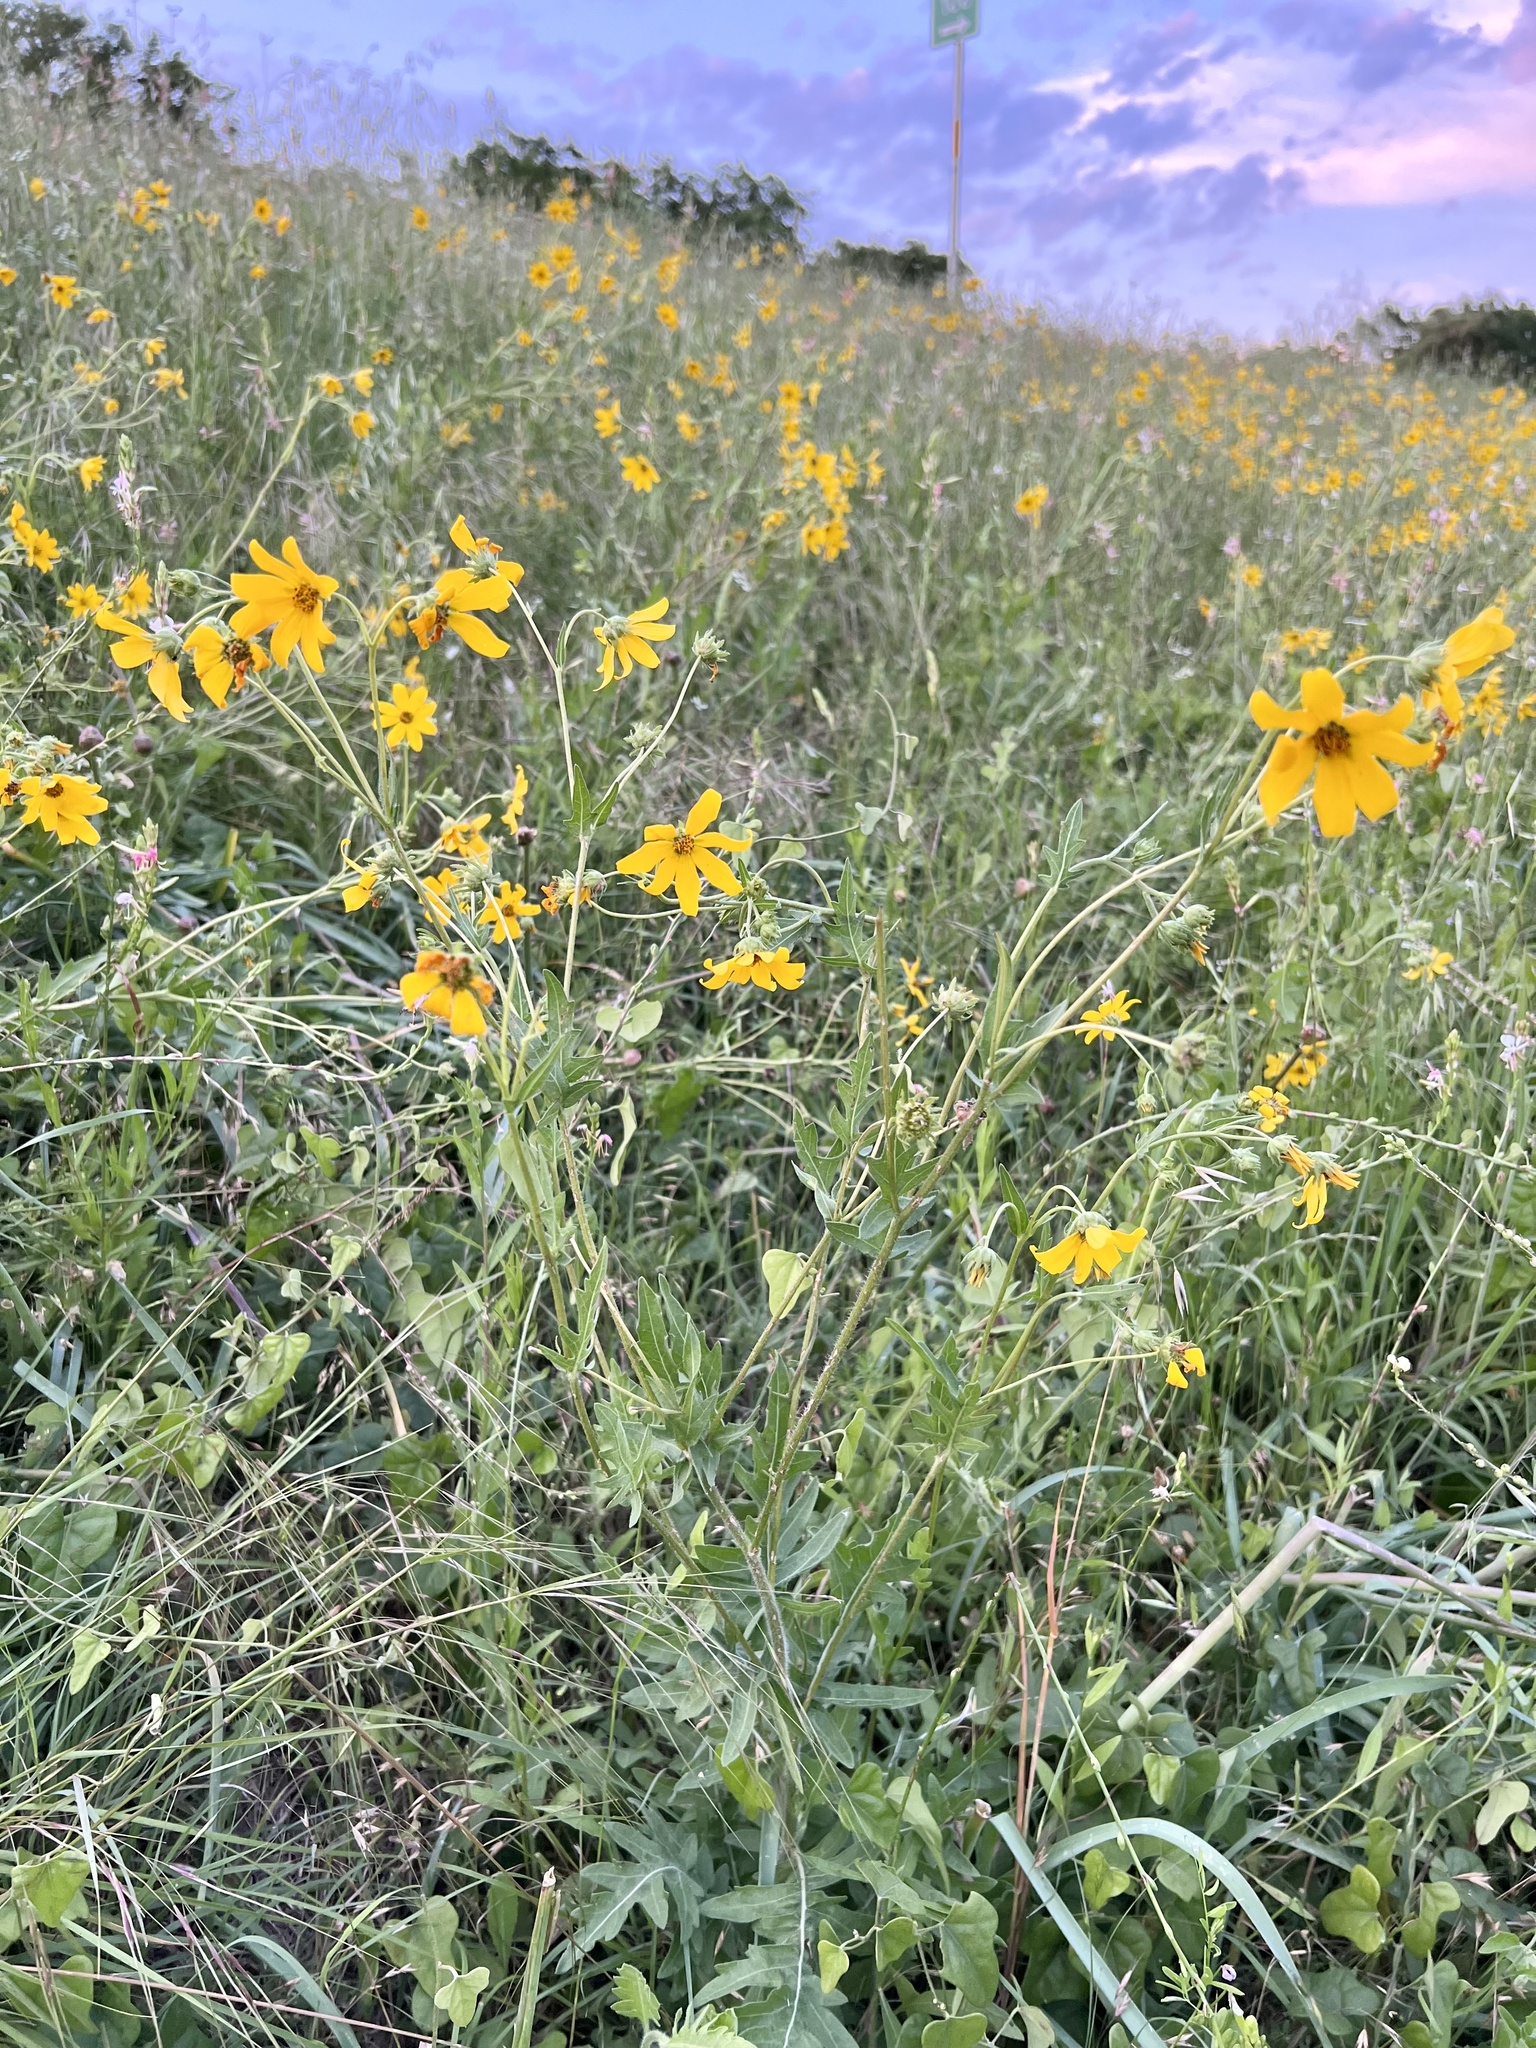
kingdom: Plantae
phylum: Tracheophyta
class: Magnoliopsida
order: Asterales
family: Asteraceae
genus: Engelmannia
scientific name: Engelmannia peristenia
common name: Engelmann's daisy
